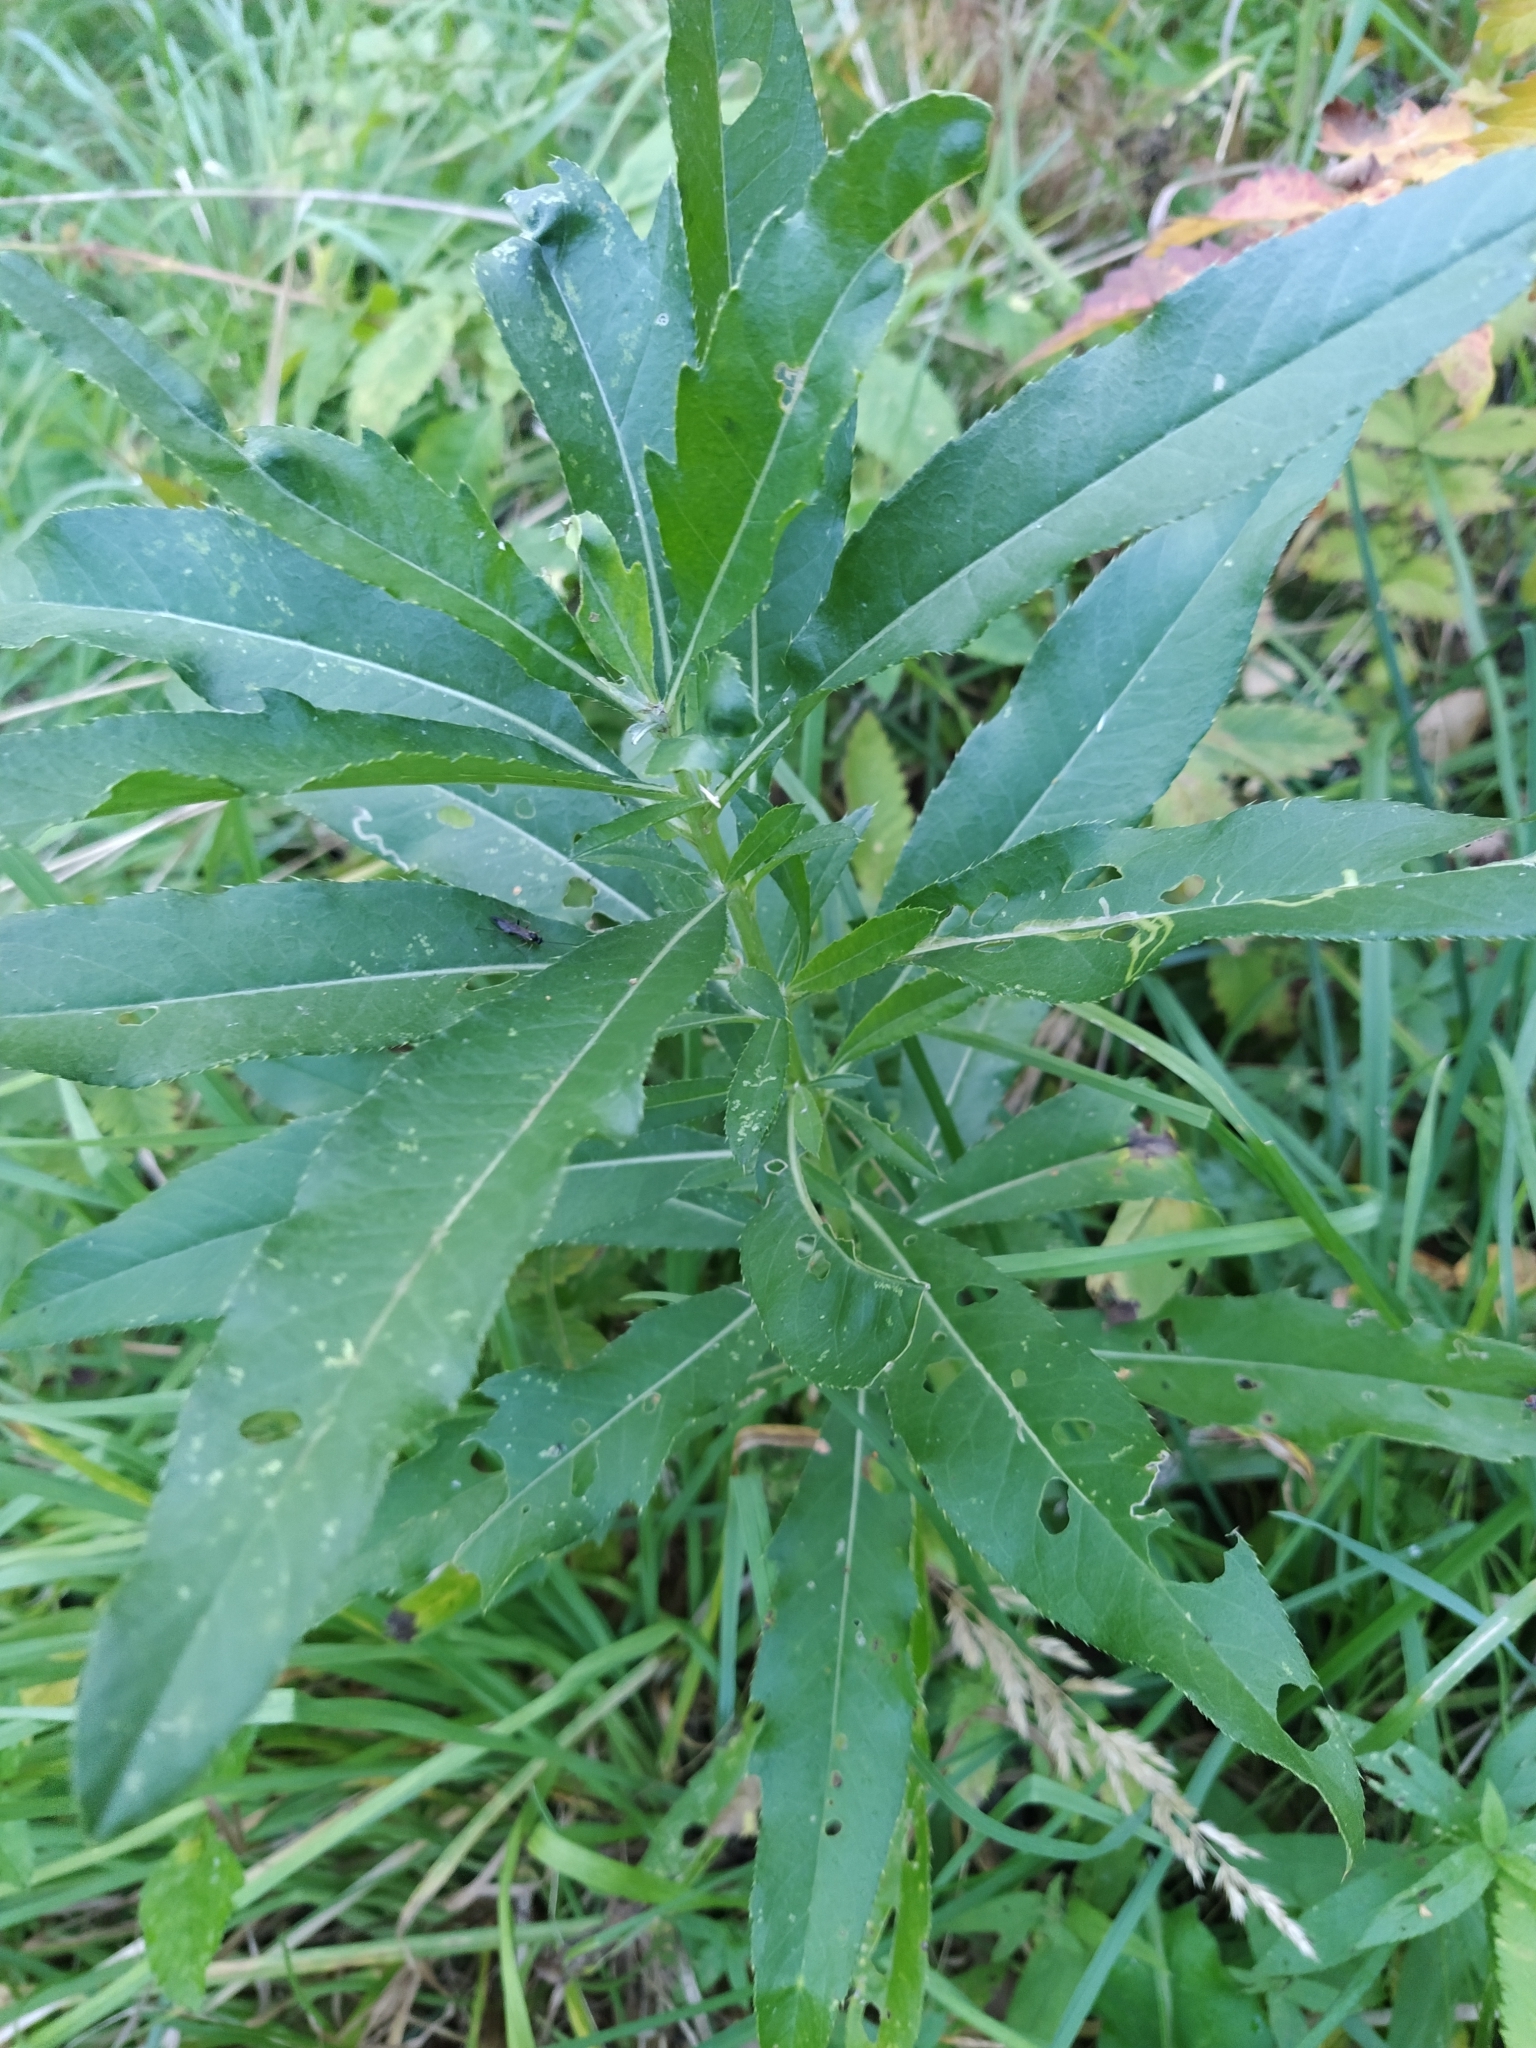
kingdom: Plantae
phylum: Tracheophyta
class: Magnoliopsida
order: Asterales
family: Asteraceae
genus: Cirsium
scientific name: Cirsium arvense
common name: Creeping thistle
